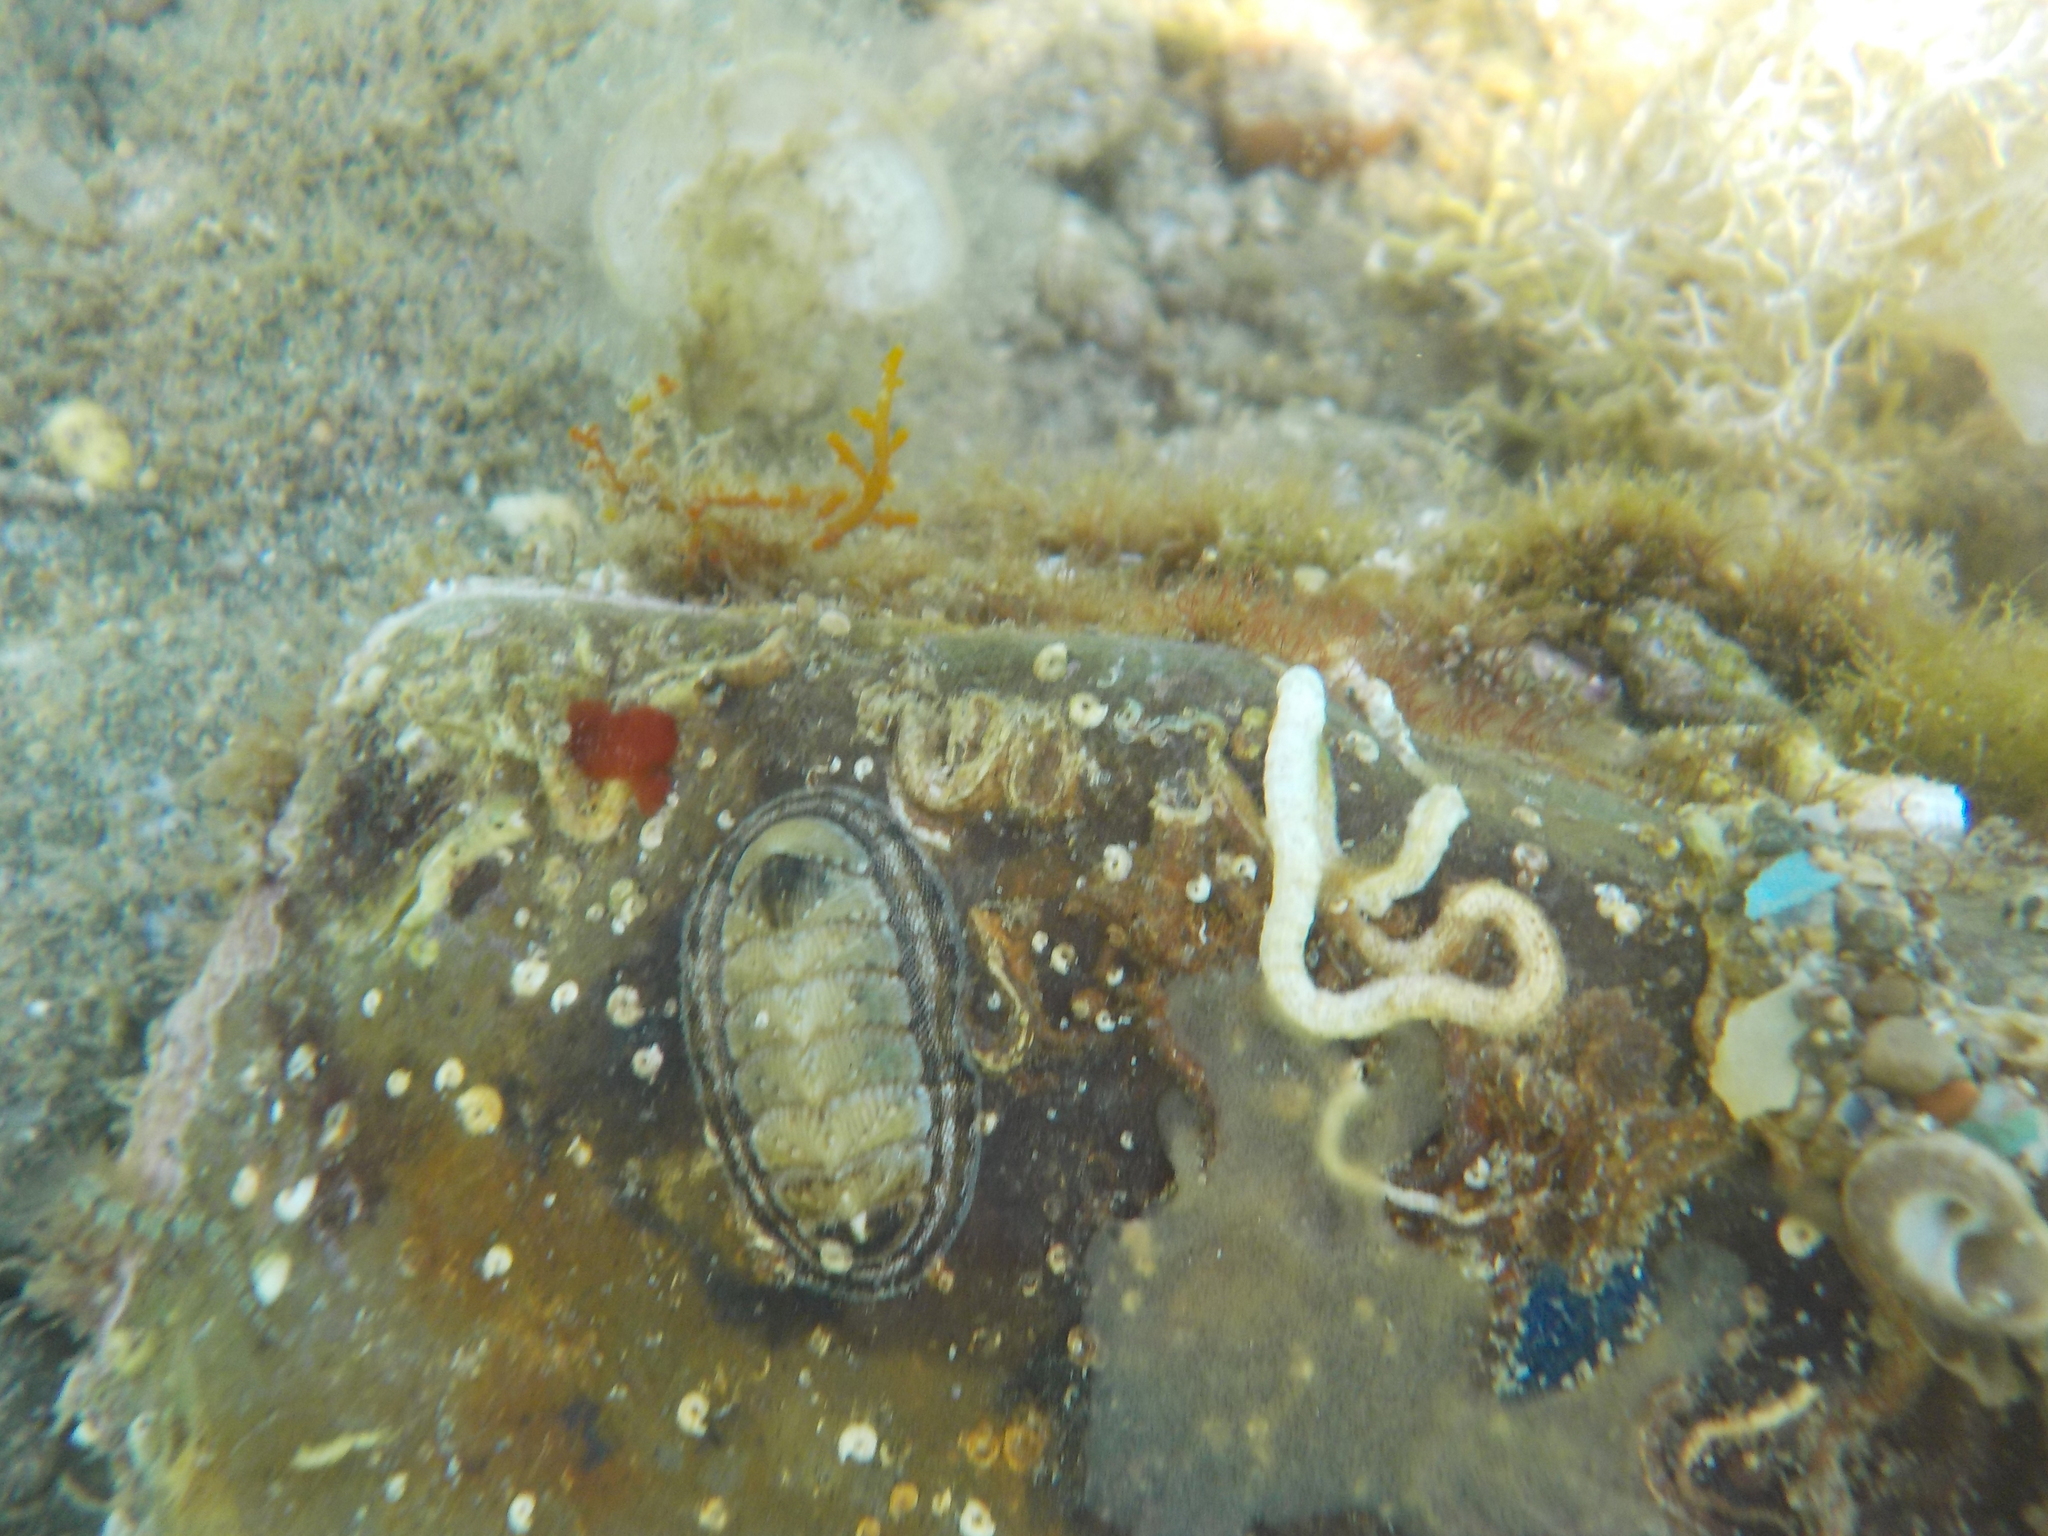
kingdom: Animalia
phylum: Mollusca
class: Polyplacophora
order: Chitonida
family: Chitonidae
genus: Rhyssoplax
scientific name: Rhyssoplax olivacea
